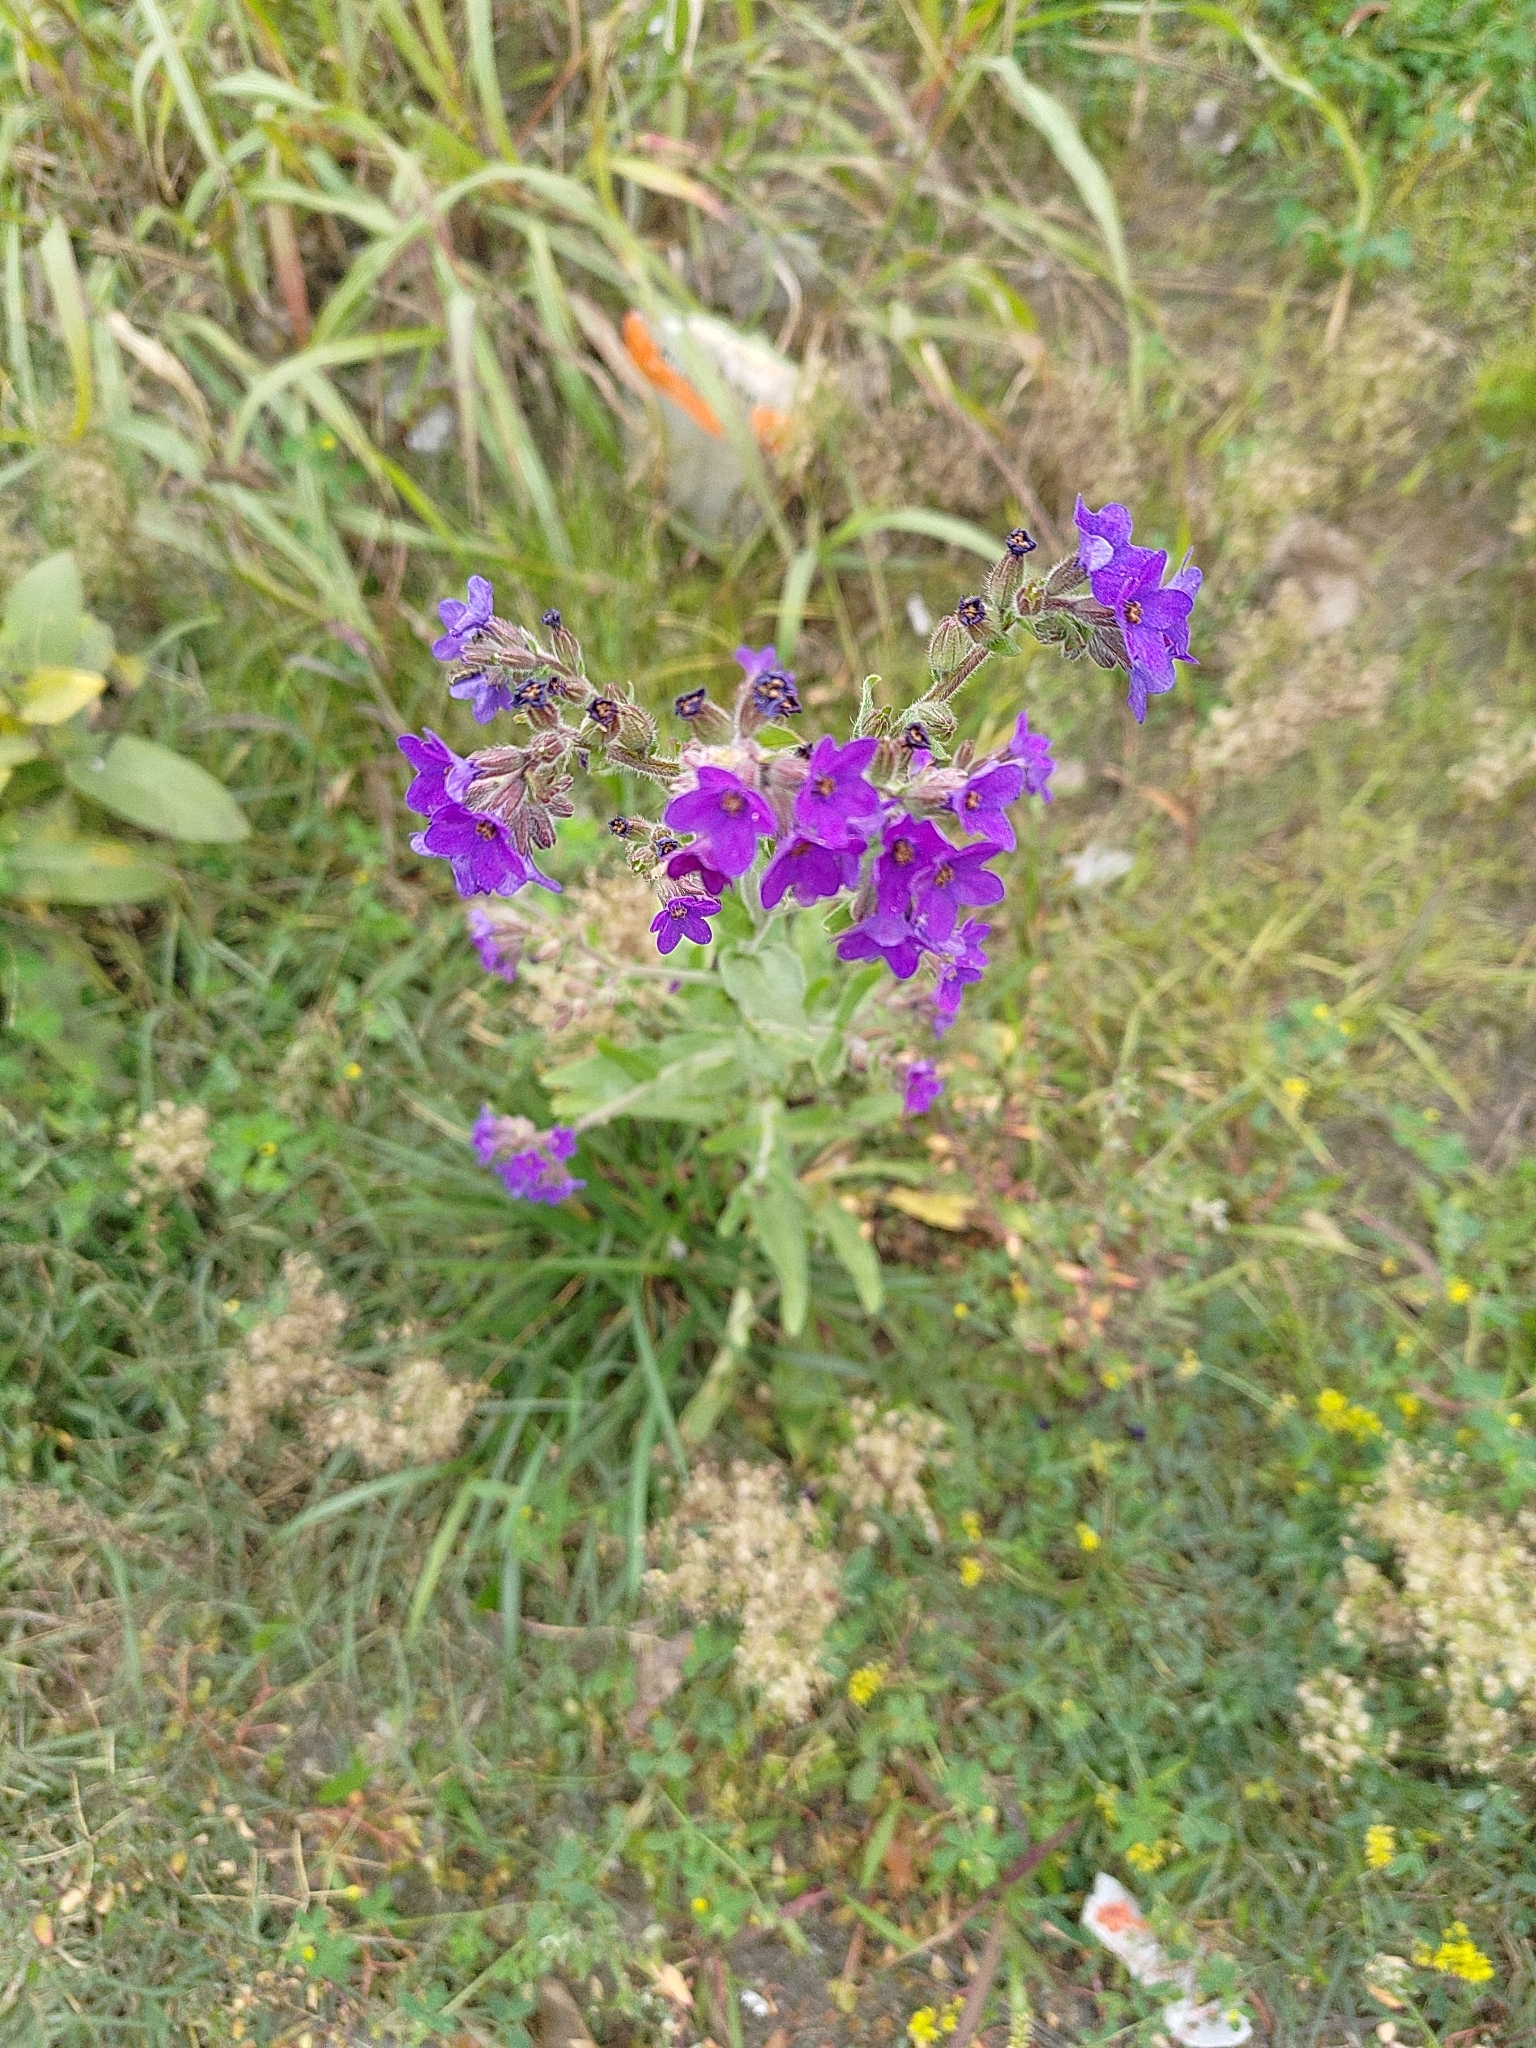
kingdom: Plantae
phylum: Tracheophyta
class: Magnoliopsida
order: Boraginales
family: Boraginaceae
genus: Anchusa
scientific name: Anchusa officinalis
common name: Alkanet
